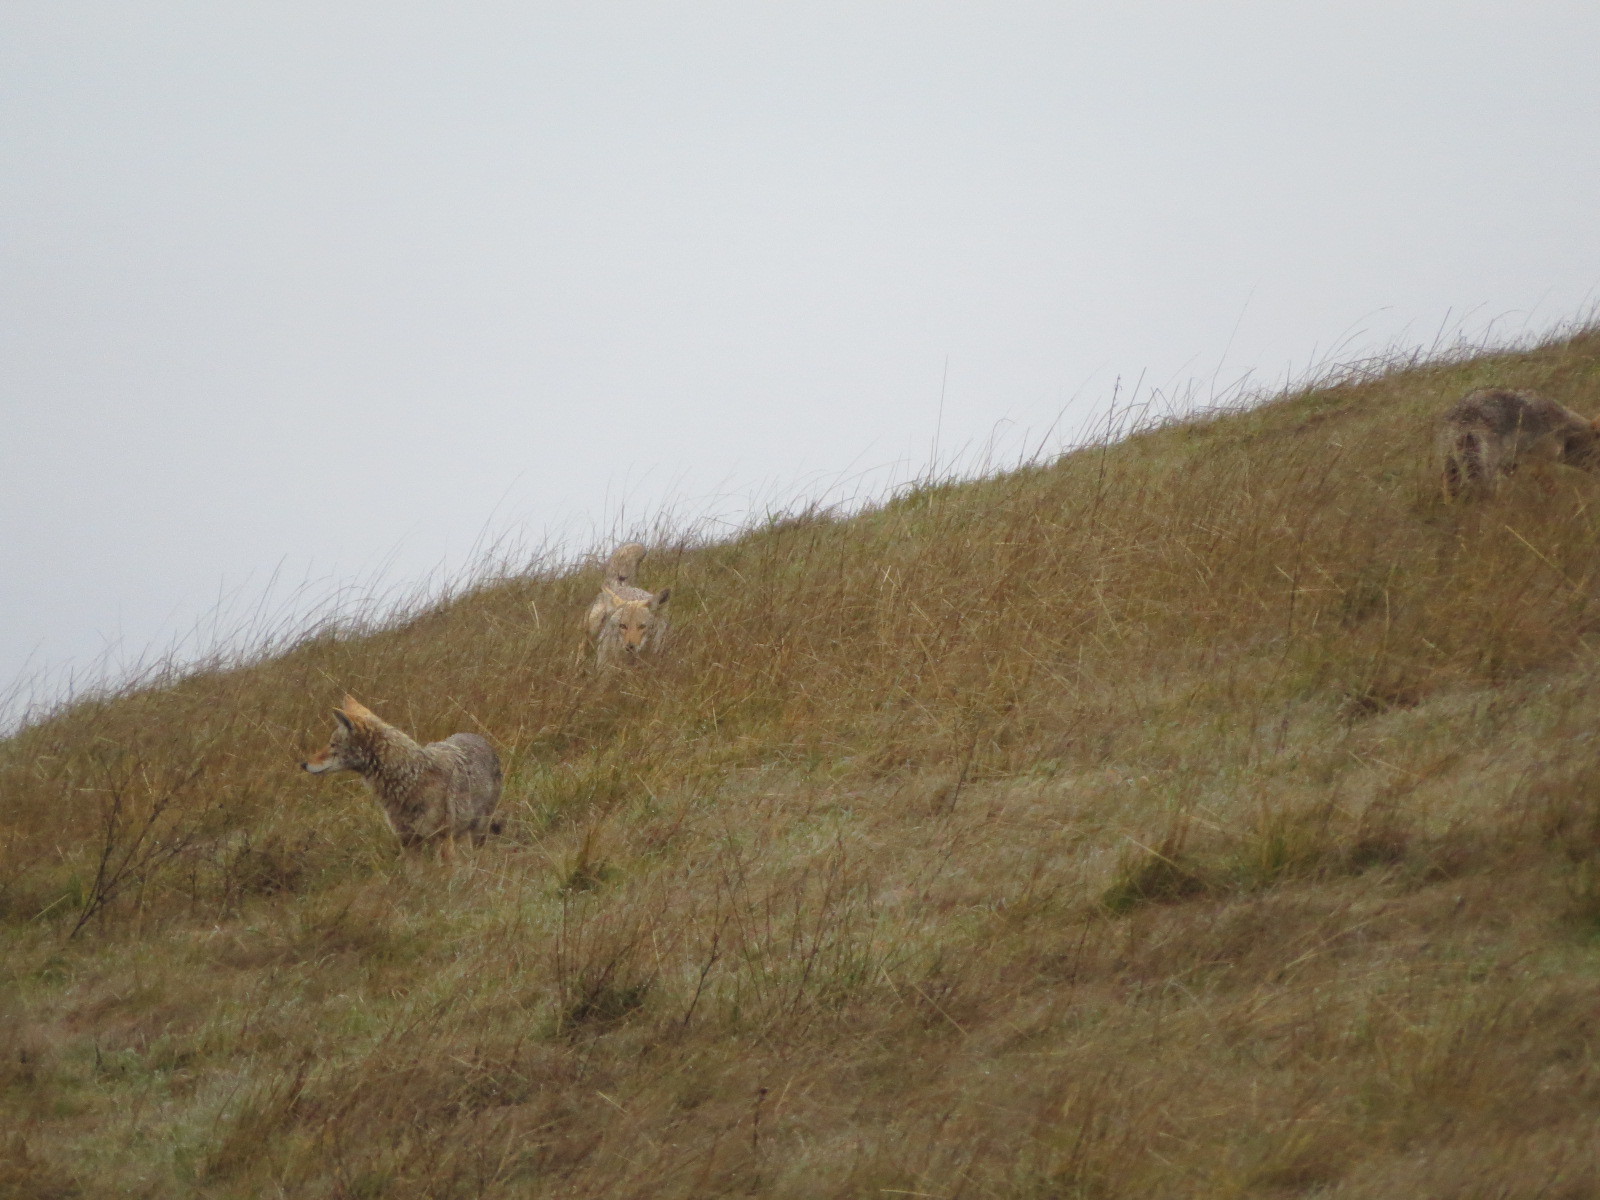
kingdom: Animalia
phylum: Chordata
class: Mammalia
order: Carnivora
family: Canidae
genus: Canis
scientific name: Canis latrans
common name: Coyote
